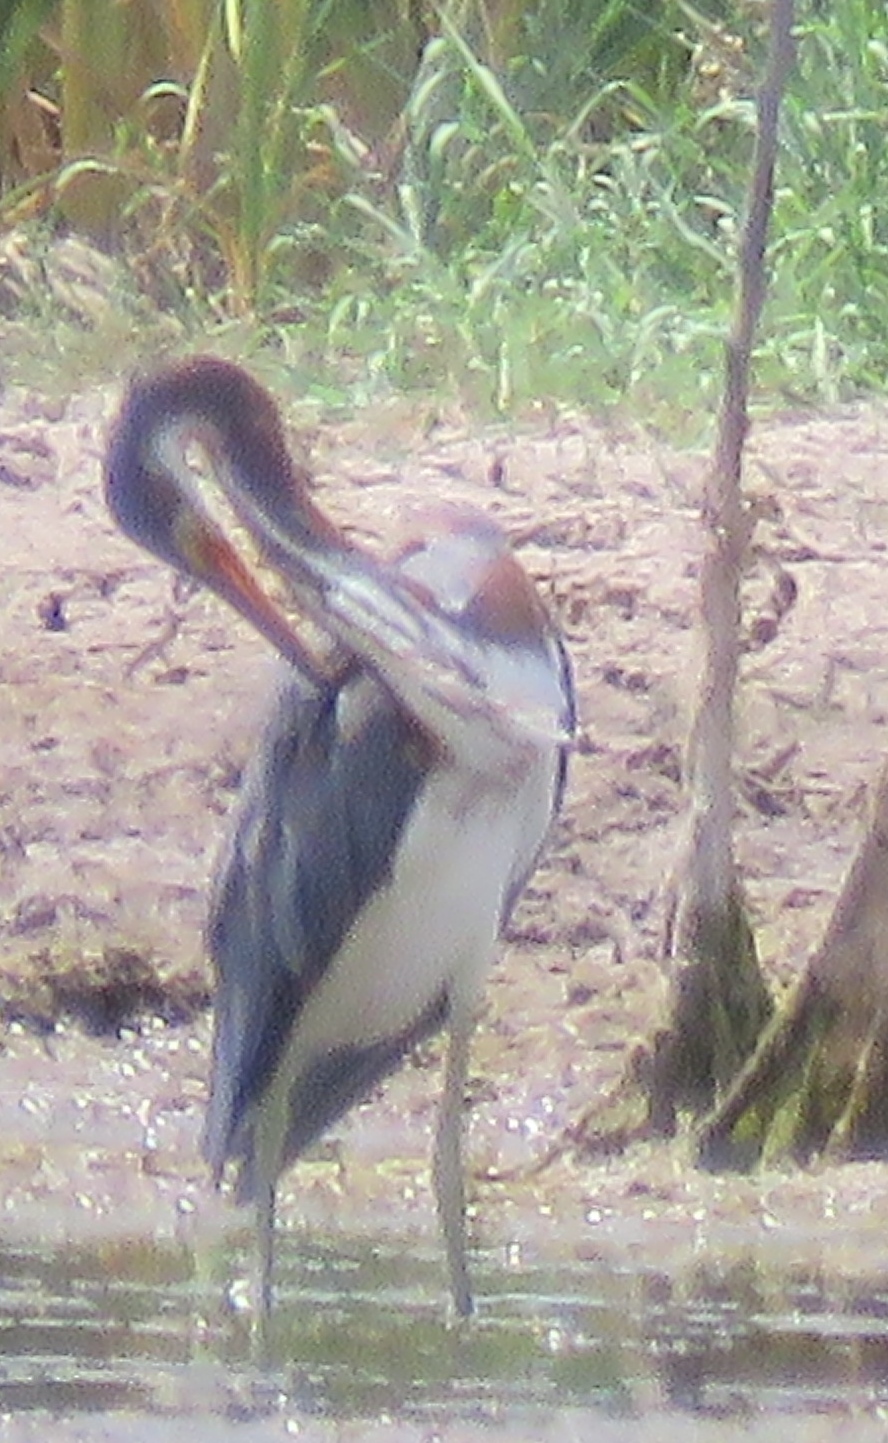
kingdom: Animalia
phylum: Chordata
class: Aves
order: Pelecaniformes
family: Ardeidae
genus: Egretta
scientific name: Egretta tricolor
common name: Tricolored heron
